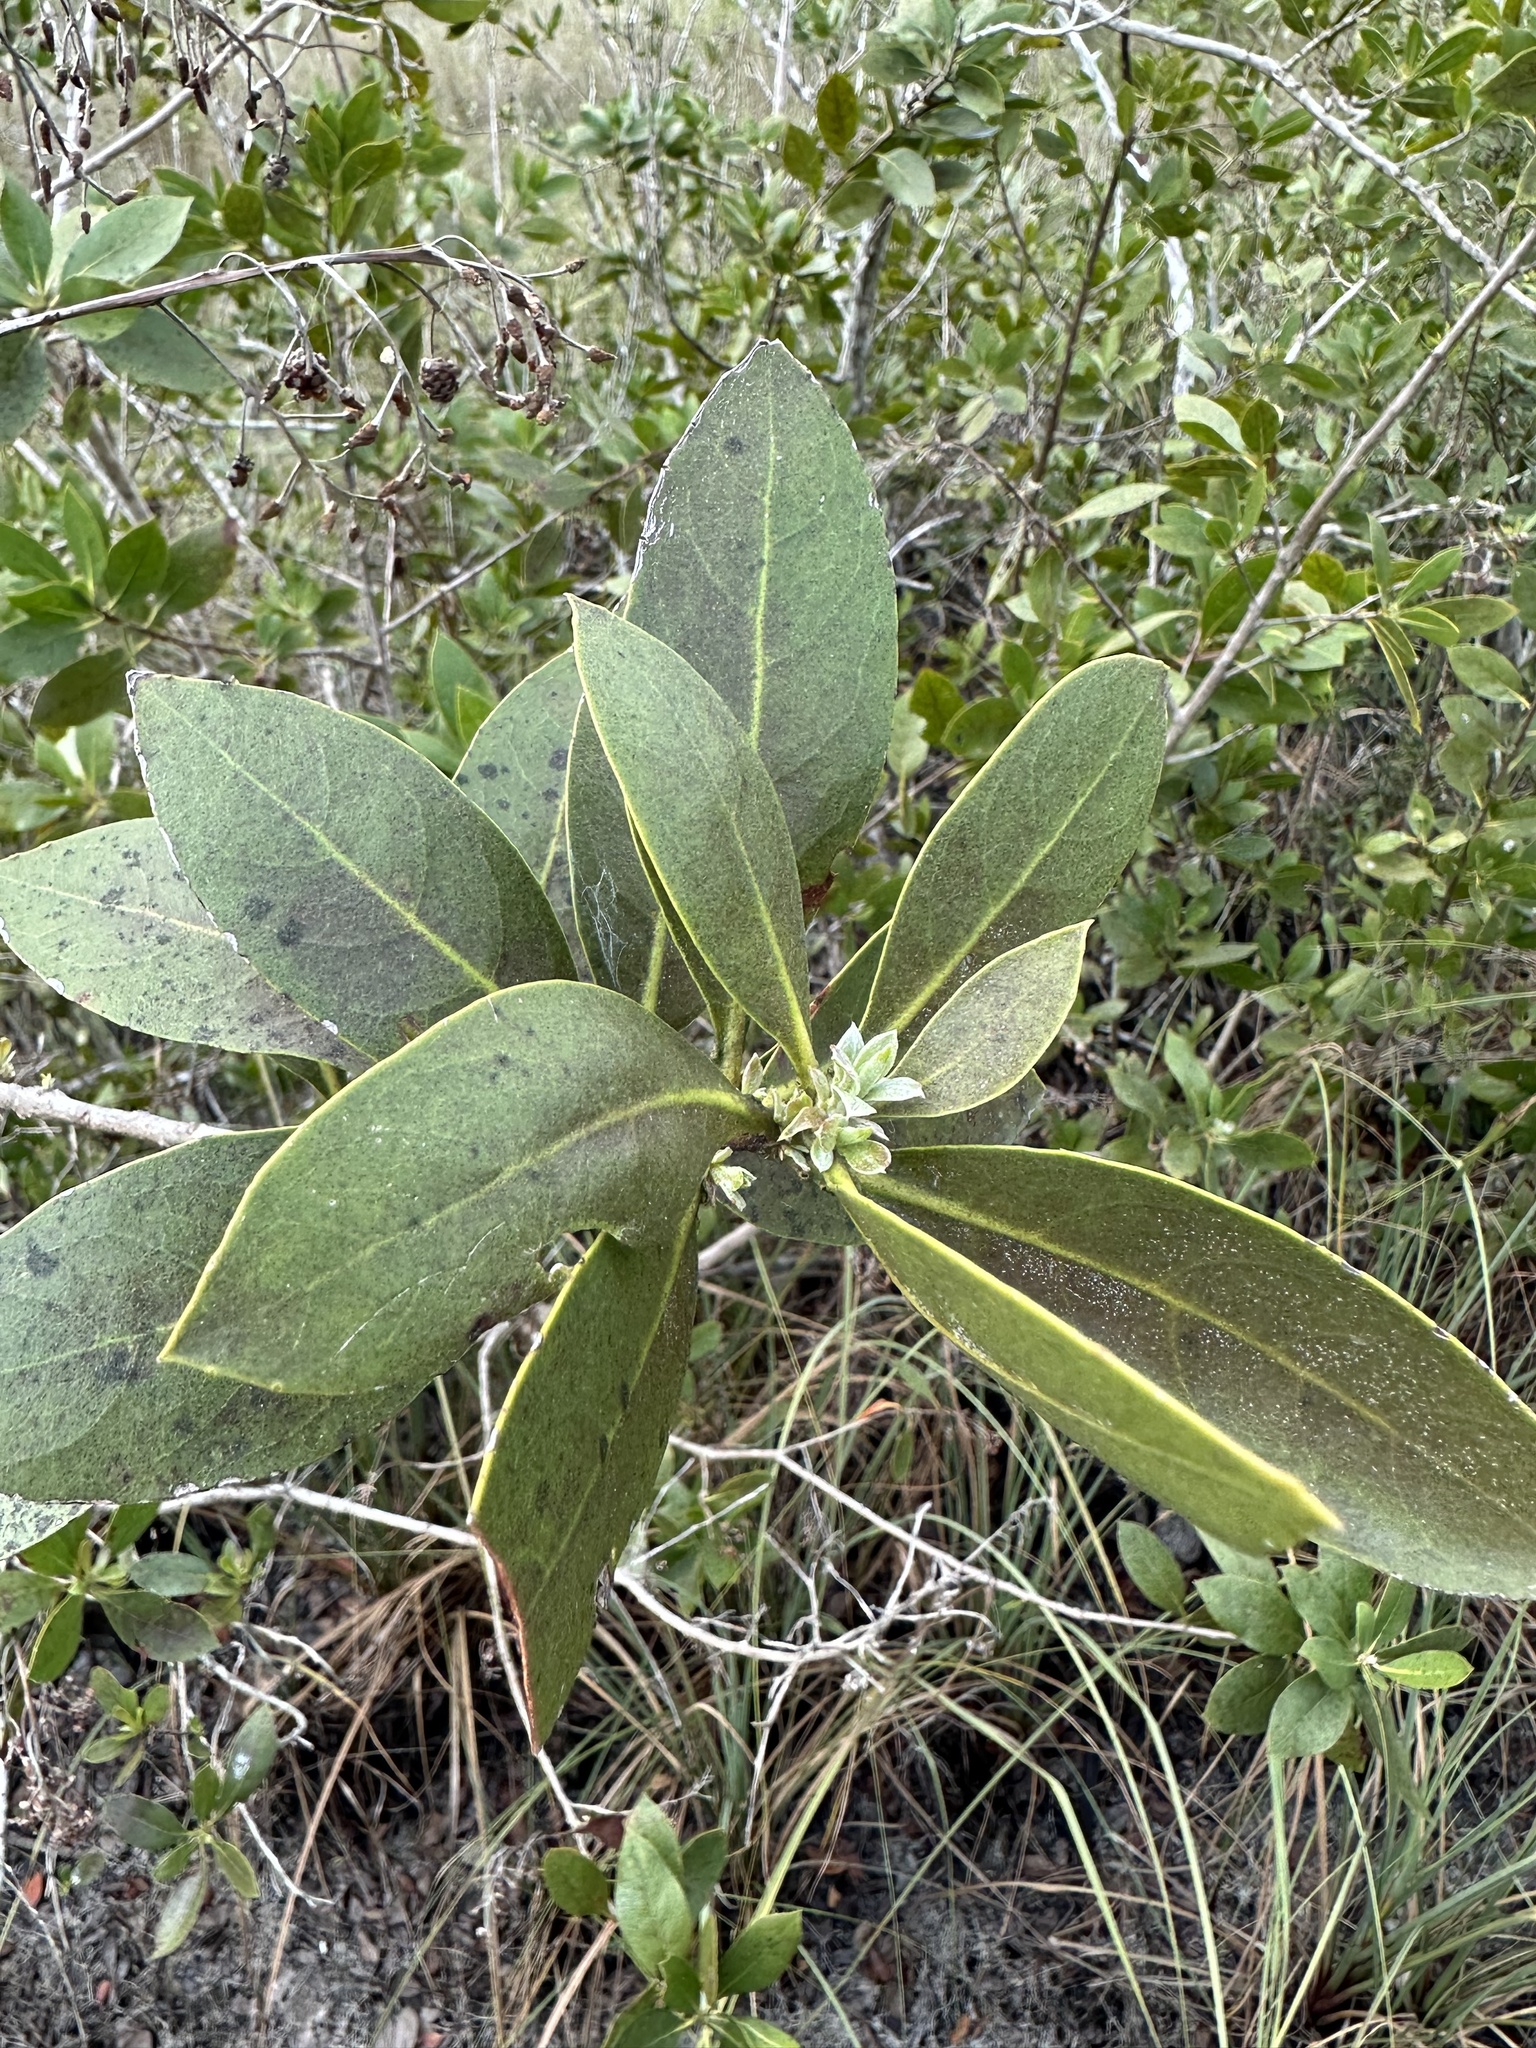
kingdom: Plantae
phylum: Tracheophyta
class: Magnoliopsida
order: Myrtales
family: Combretaceae
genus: Conocarpus
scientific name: Conocarpus erectus
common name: Button mangrove
